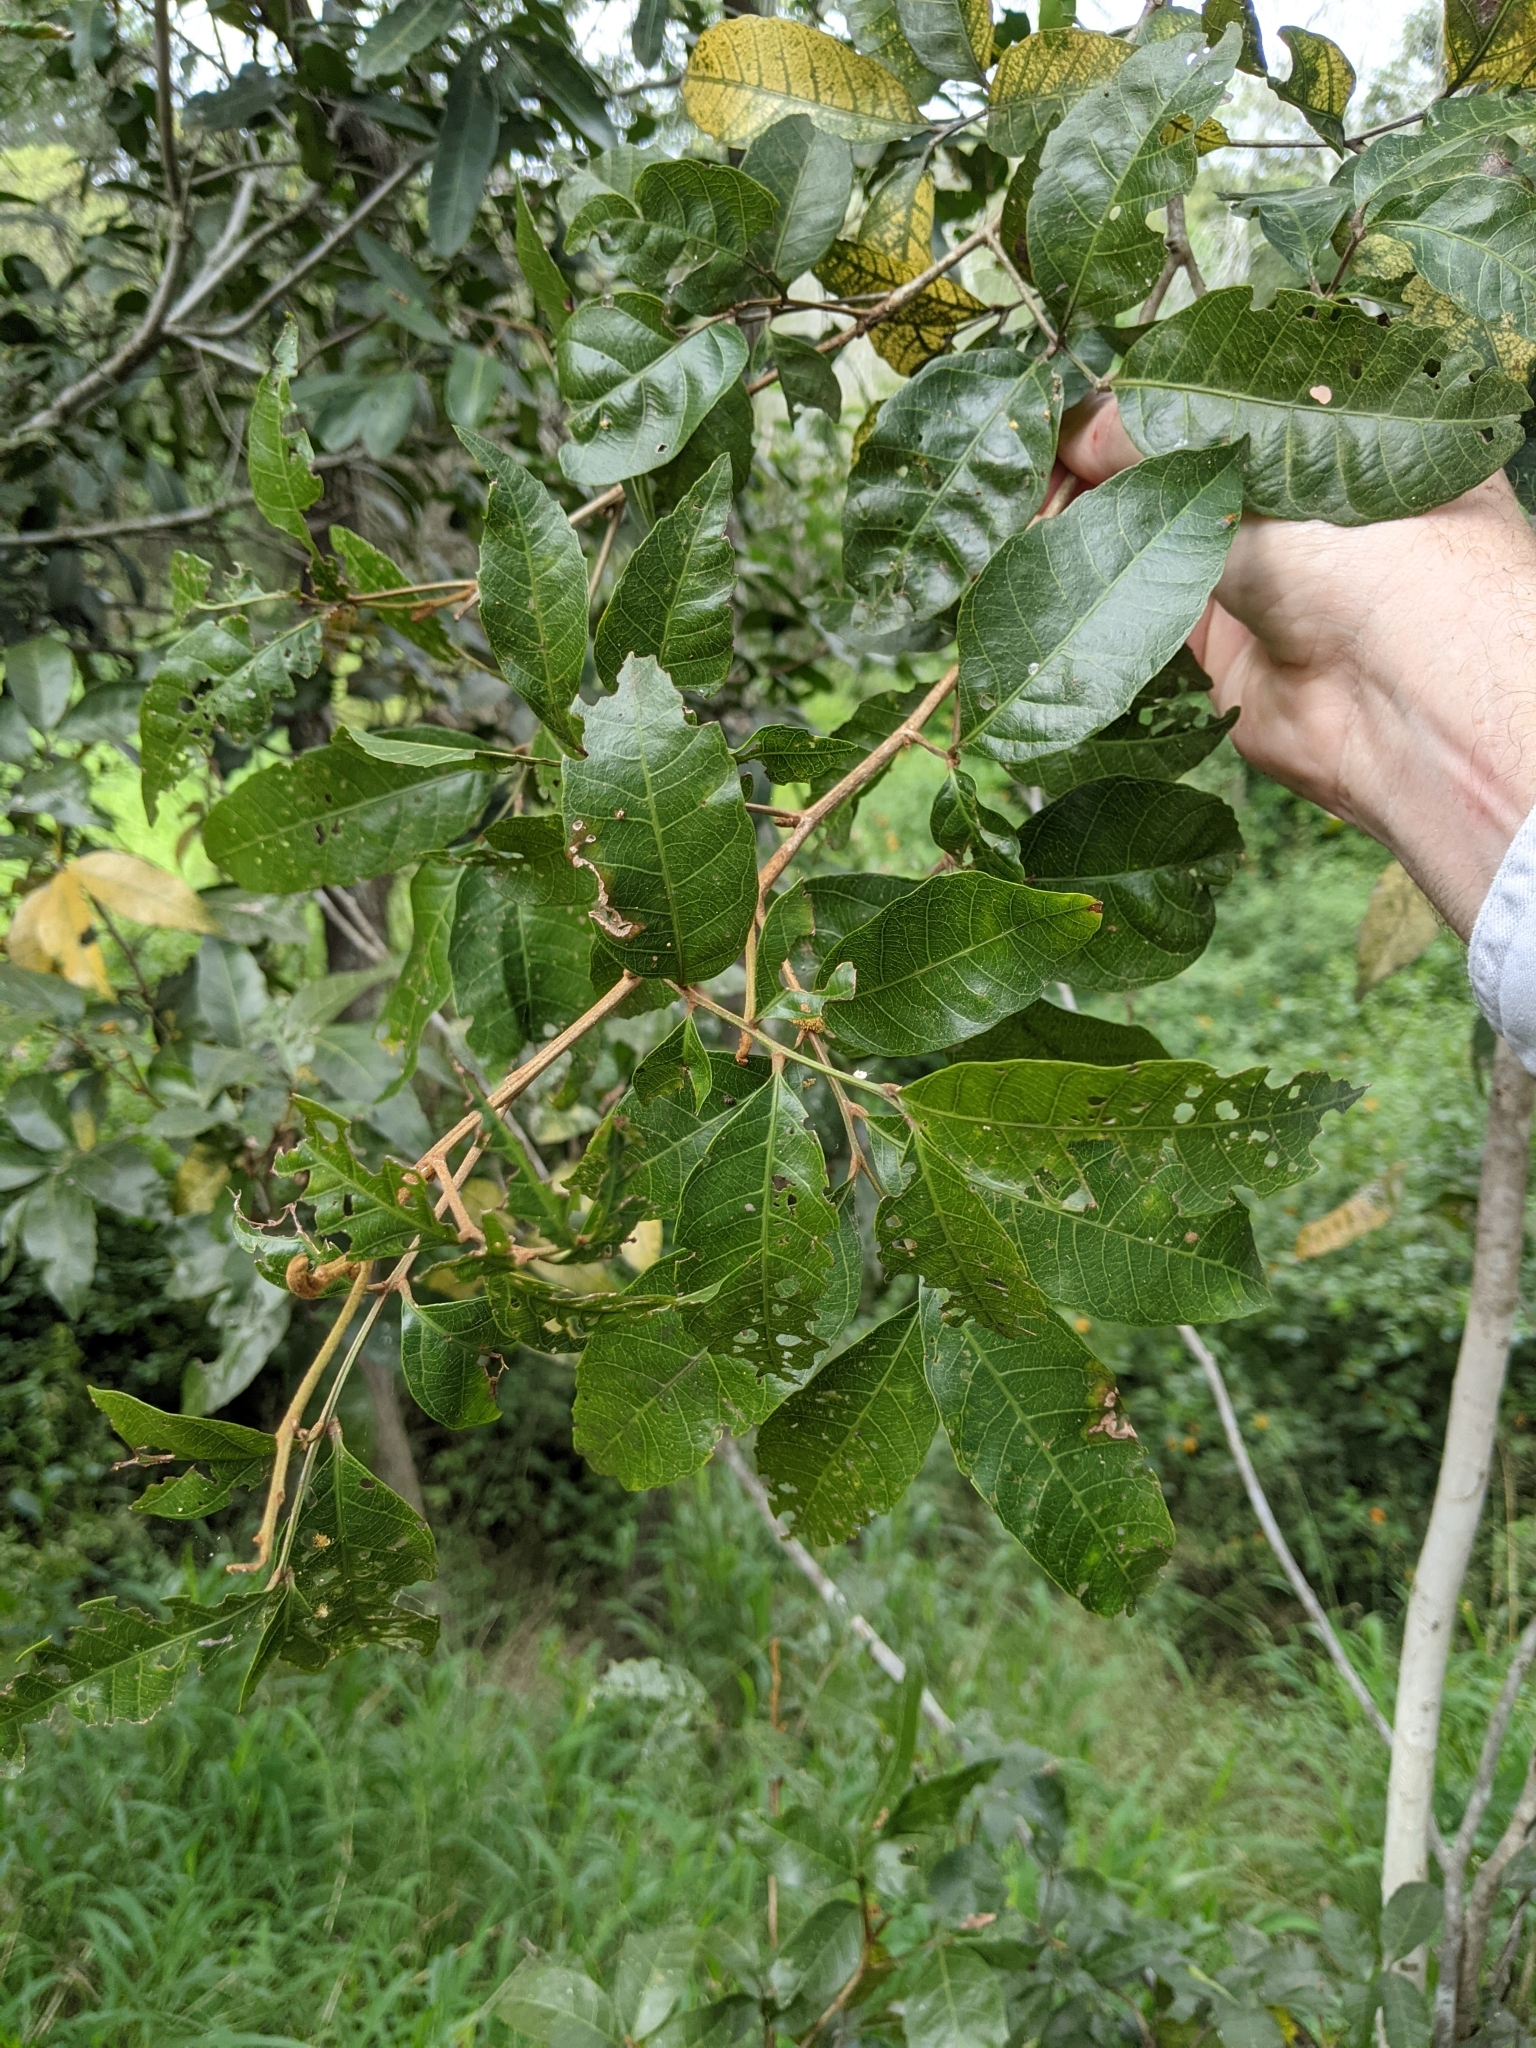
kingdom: Plantae
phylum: Tracheophyta
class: Magnoliopsida
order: Sapindales
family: Sapindaceae
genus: Elattostachys
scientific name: Elattostachys xylocarpa
